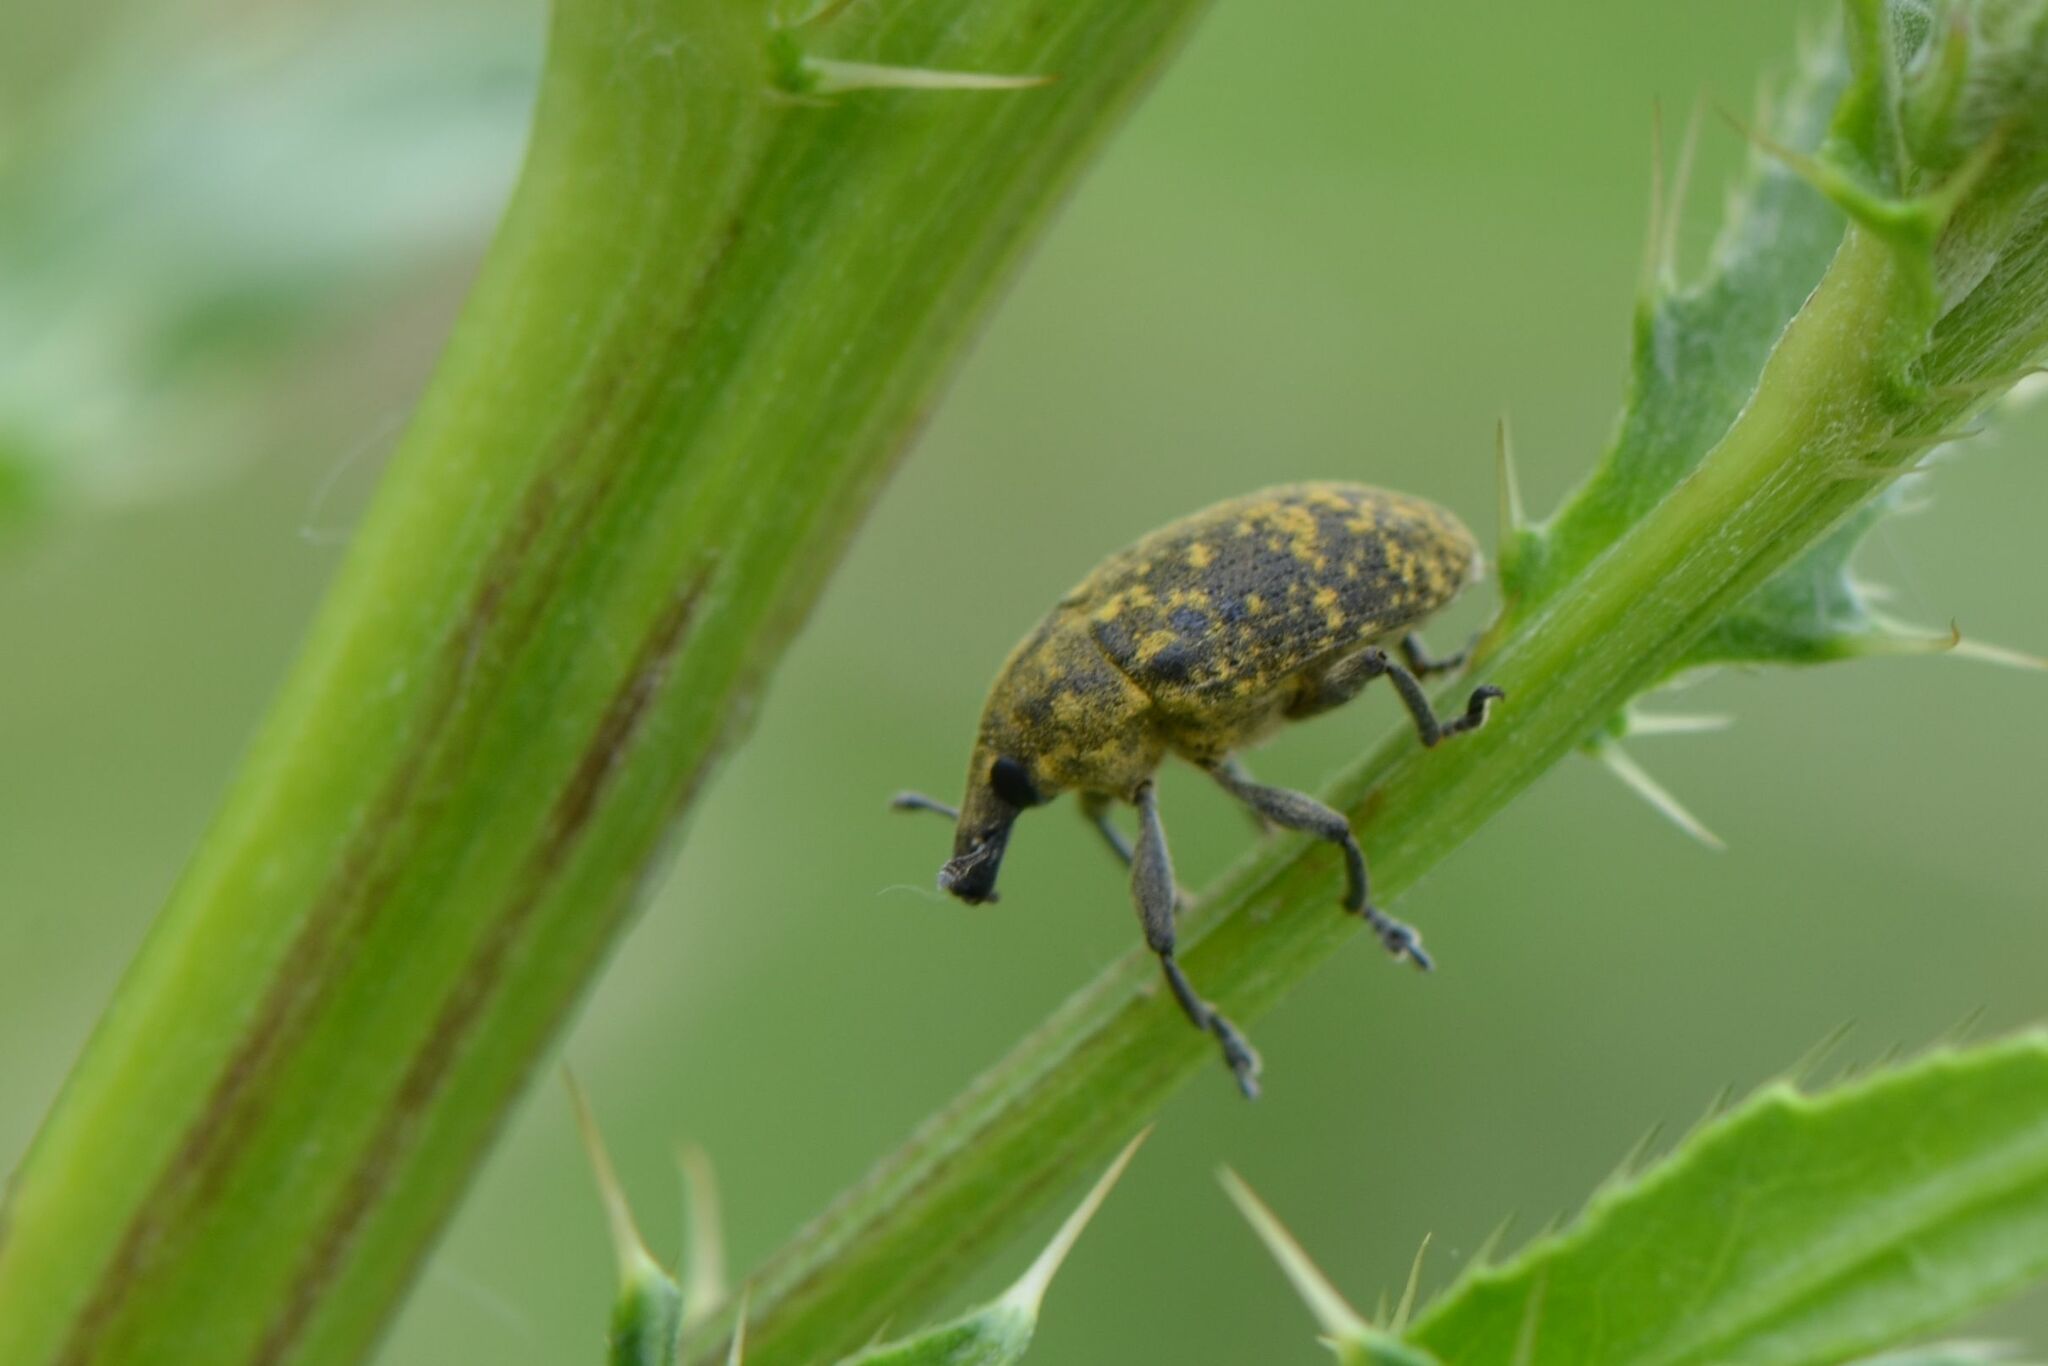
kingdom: Animalia
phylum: Arthropoda
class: Insecta
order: Coleoptera
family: Curculionidae
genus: Larinus
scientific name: Larinus turbinatus
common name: Weevil
